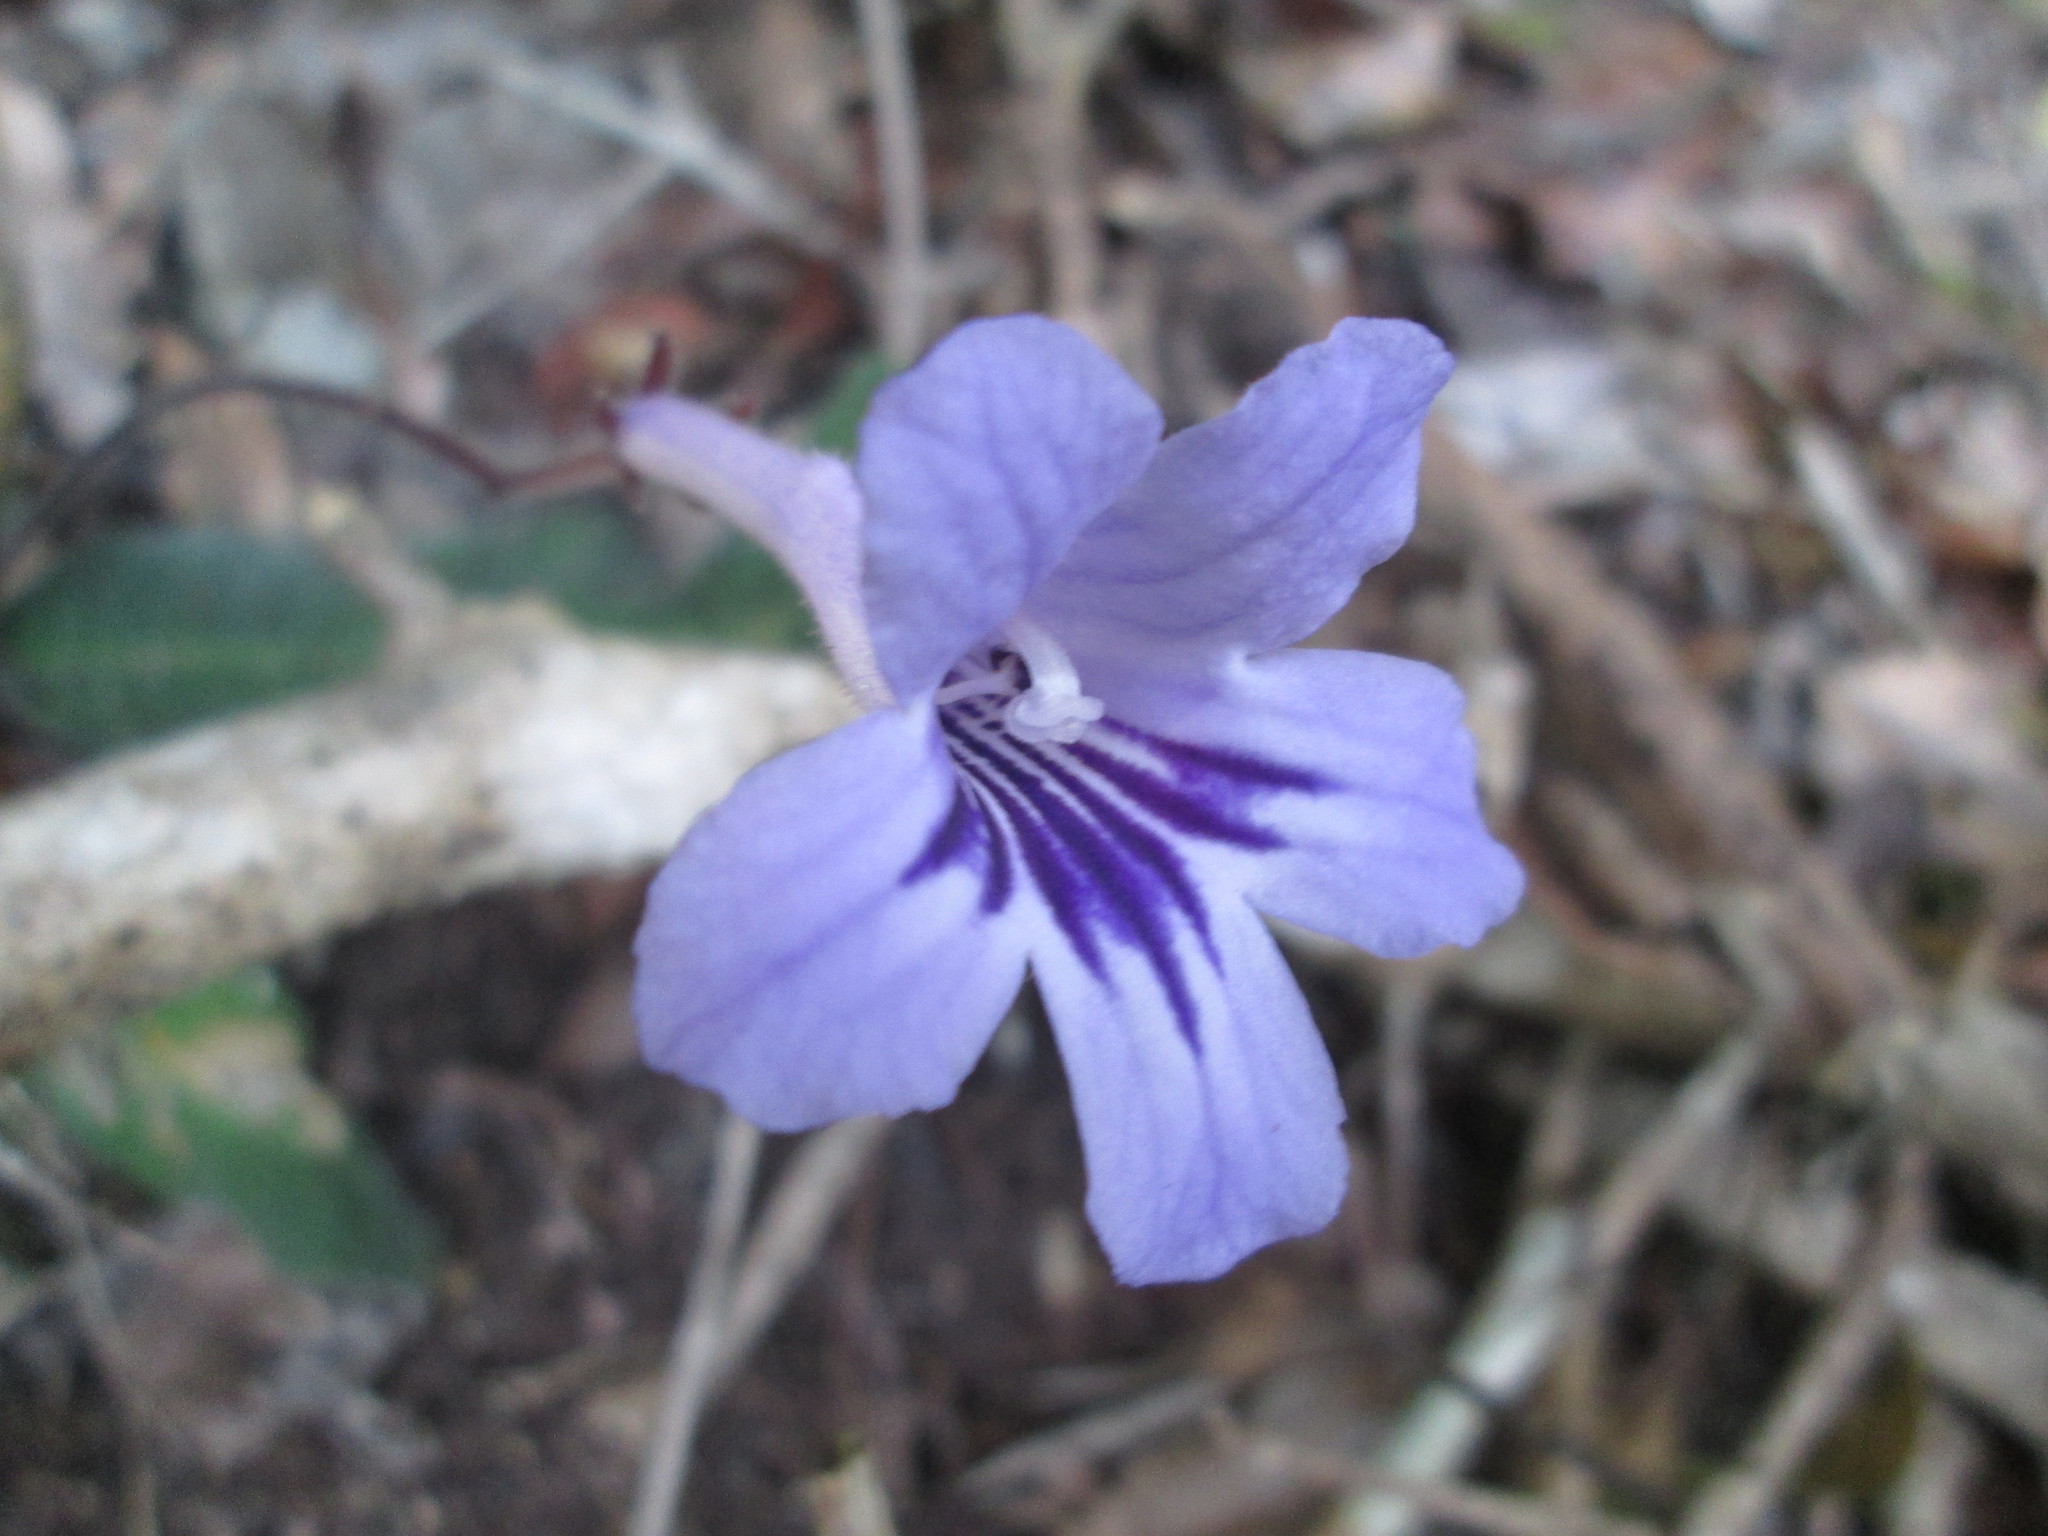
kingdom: Plantae
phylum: Tracheophyta
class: Magnoliopsida
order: Lamiales
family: Gesneriaceae
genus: Streptocarpus
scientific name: Streptocarpus rexii
